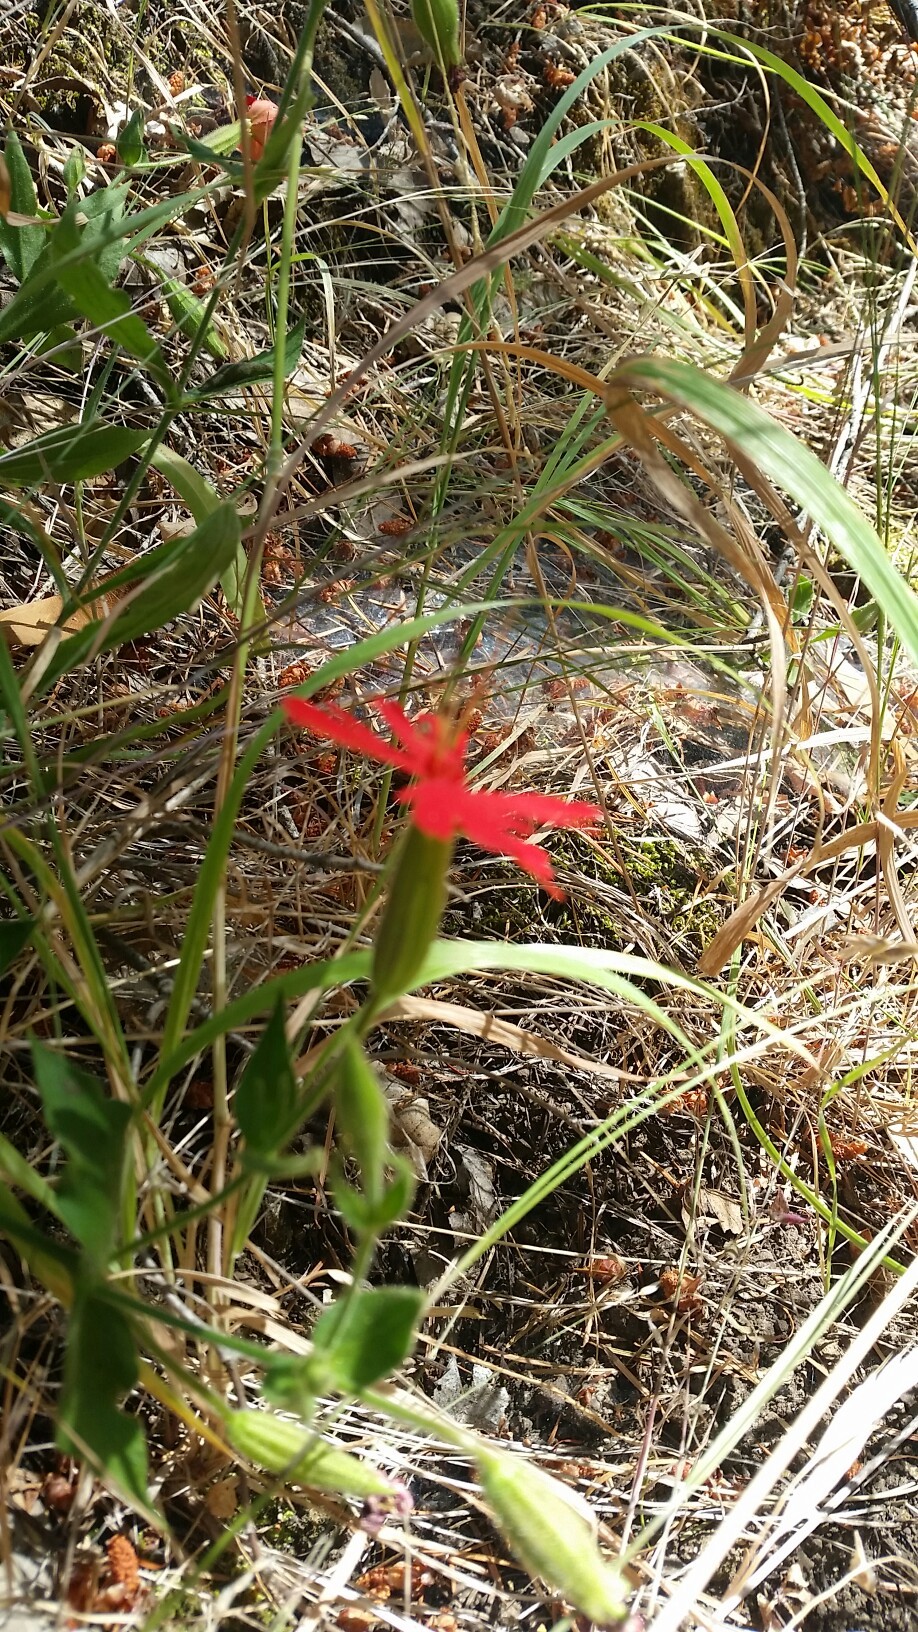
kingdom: Plantae
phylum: Tracheophyta
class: Magnoliopsida
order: Caryophyllales
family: Caryophyllaceae
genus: Silene
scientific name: Silene laciniata
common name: Indian-pink
